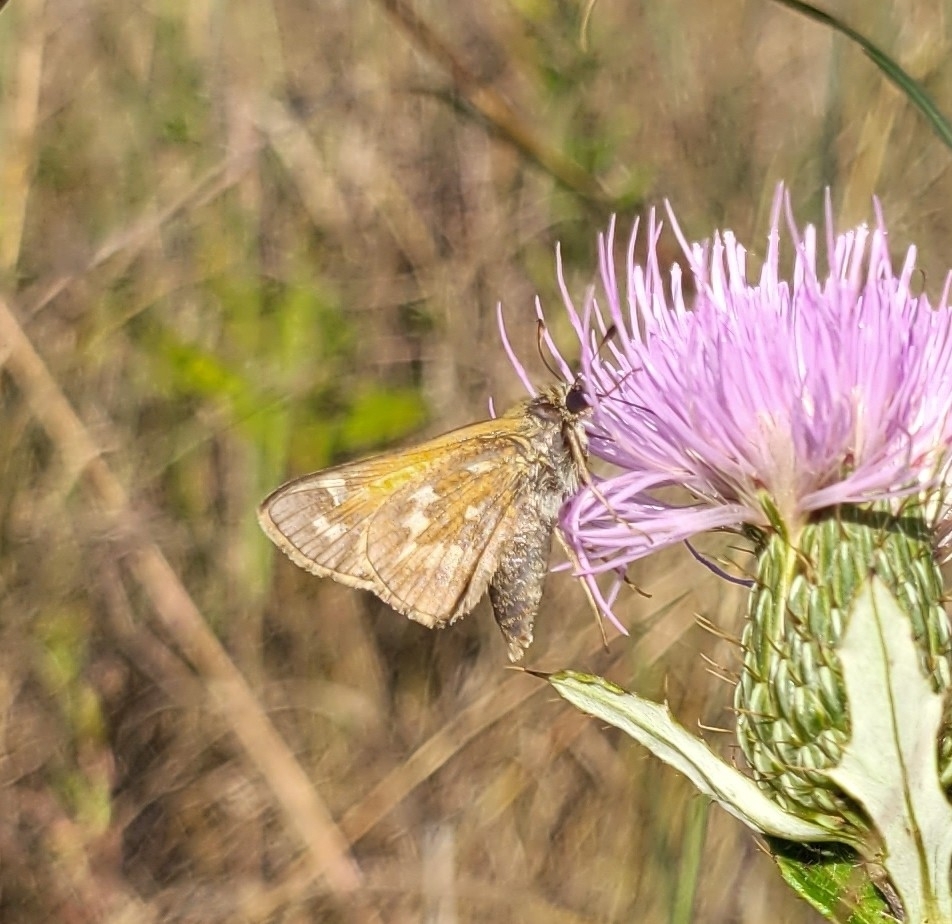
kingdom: Animalia
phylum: Arthropoda
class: Insecta
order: Lepidoptera
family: Hesperiidae
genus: Atalopedes
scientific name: Atalopedes
